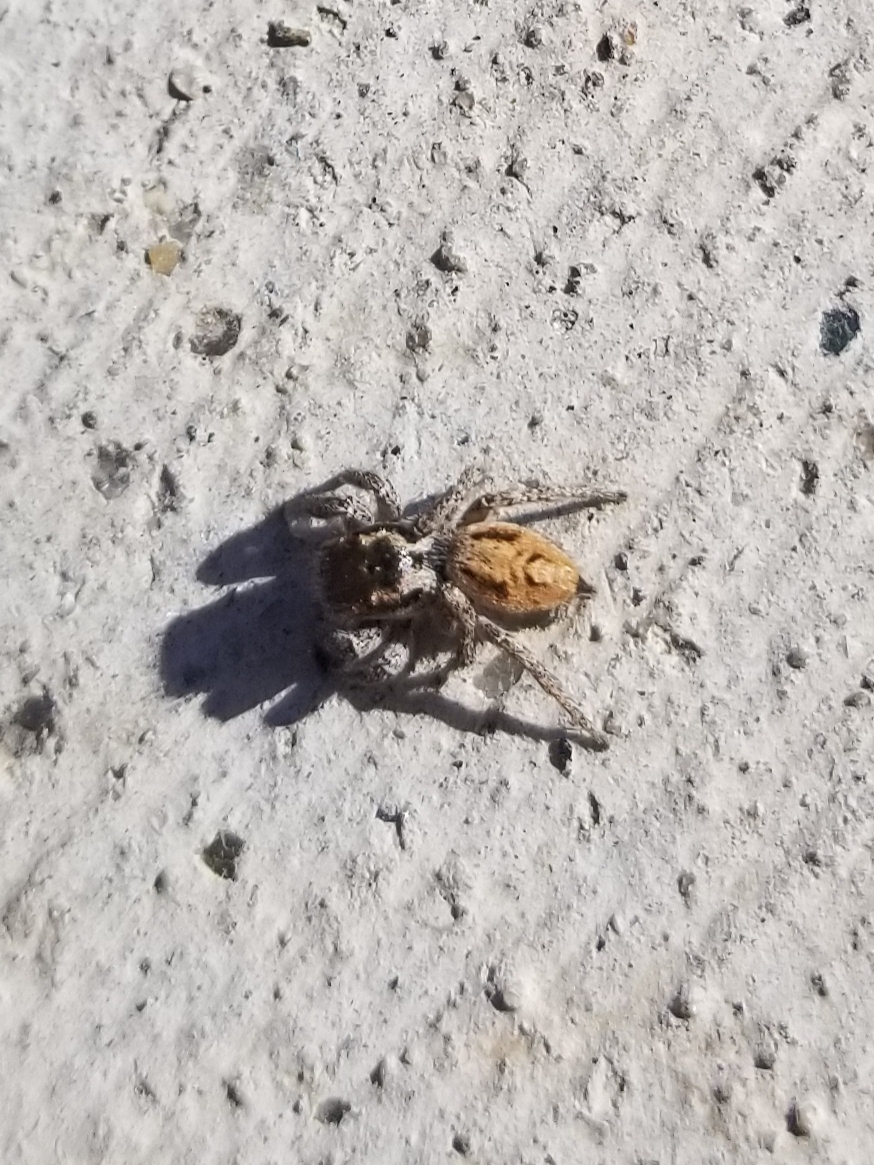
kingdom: Animalia
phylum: Arthropoda
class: Arachnida
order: Araneae
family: Salticidae
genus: Habronattus
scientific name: Habronattus pyrrithrix
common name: Jumping spider
